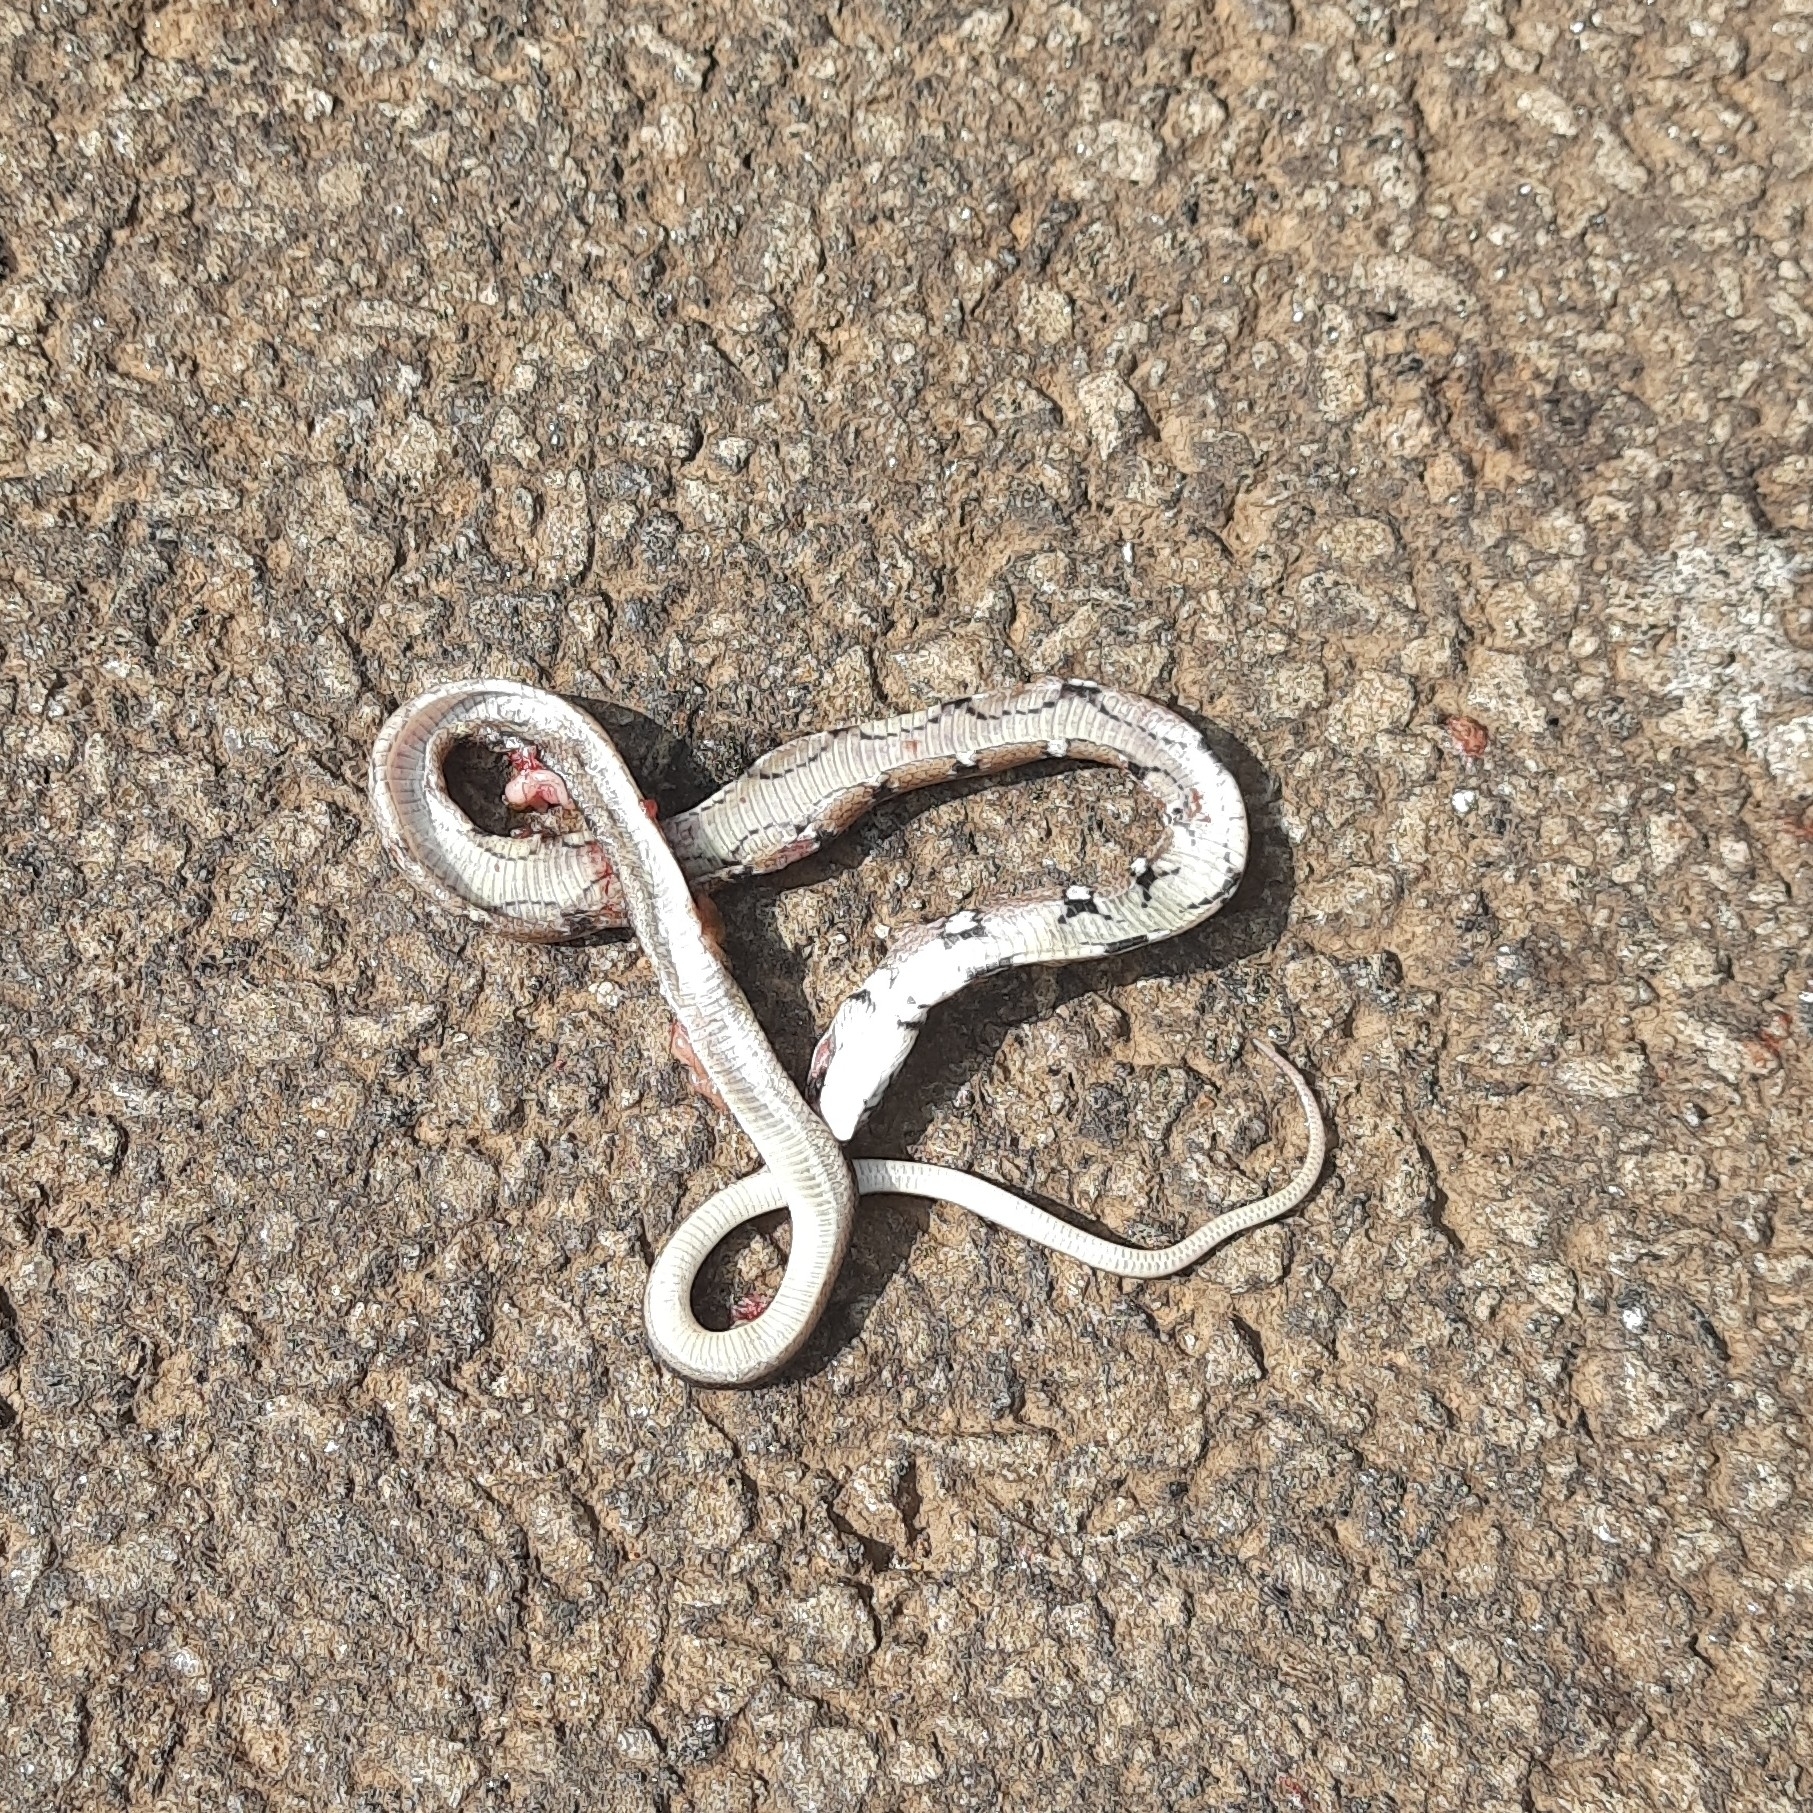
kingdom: Animalia
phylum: Chordata
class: Squamata
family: Colubridae
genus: Coelognathus
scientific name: Coelognathus helena
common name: Trinket snake
